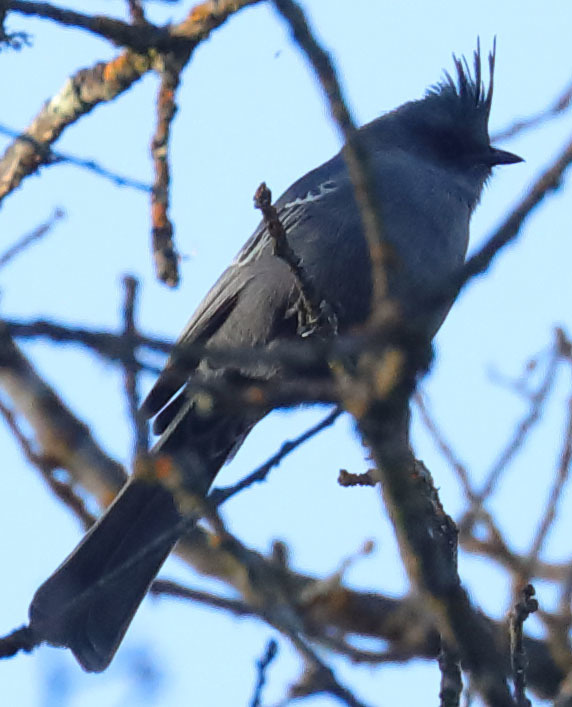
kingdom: Animalia
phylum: Chordata
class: Aves
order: Passeriformes
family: Ptilogonatidae
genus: Phainopepla
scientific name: Phainopepla nitens
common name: Phainopepla
